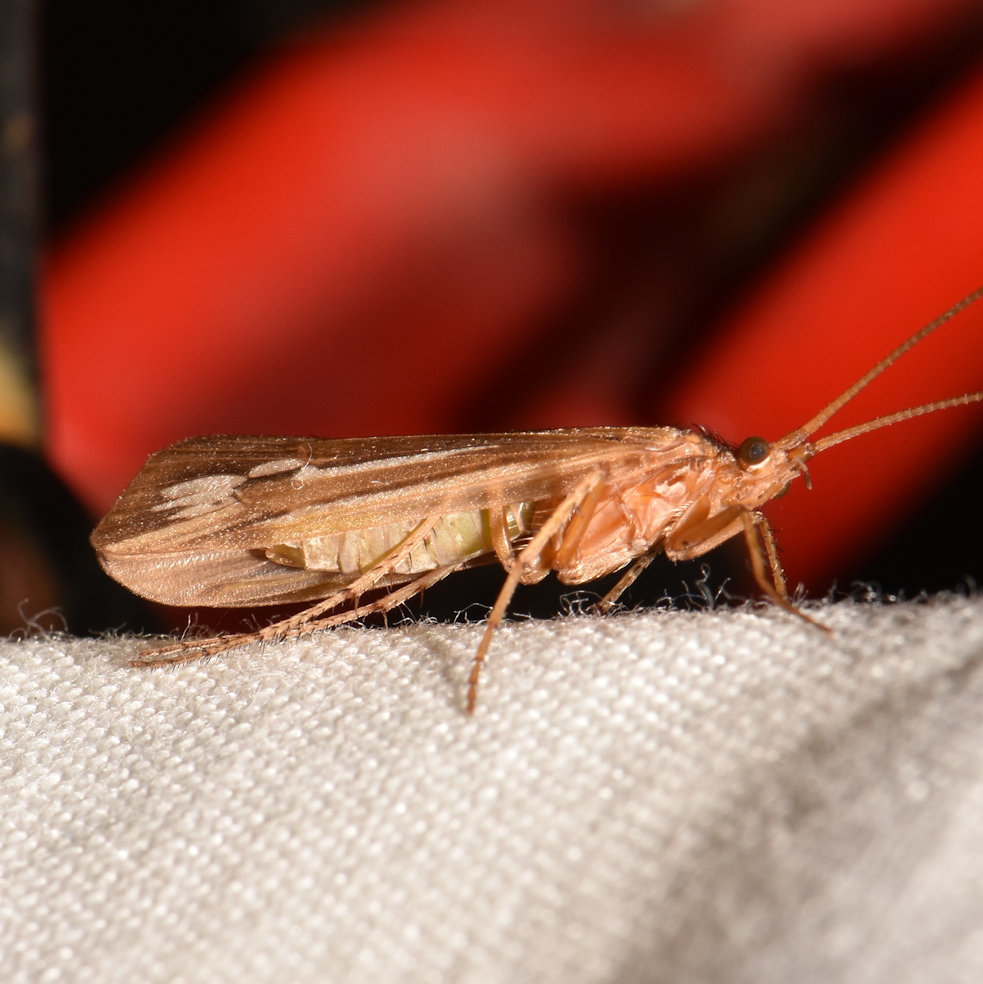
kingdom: Animalia
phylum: Arthropoda
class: Insecta
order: Trichoptera
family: Limnephilidae
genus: Limnephilus
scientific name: Limnephilus ornatus
